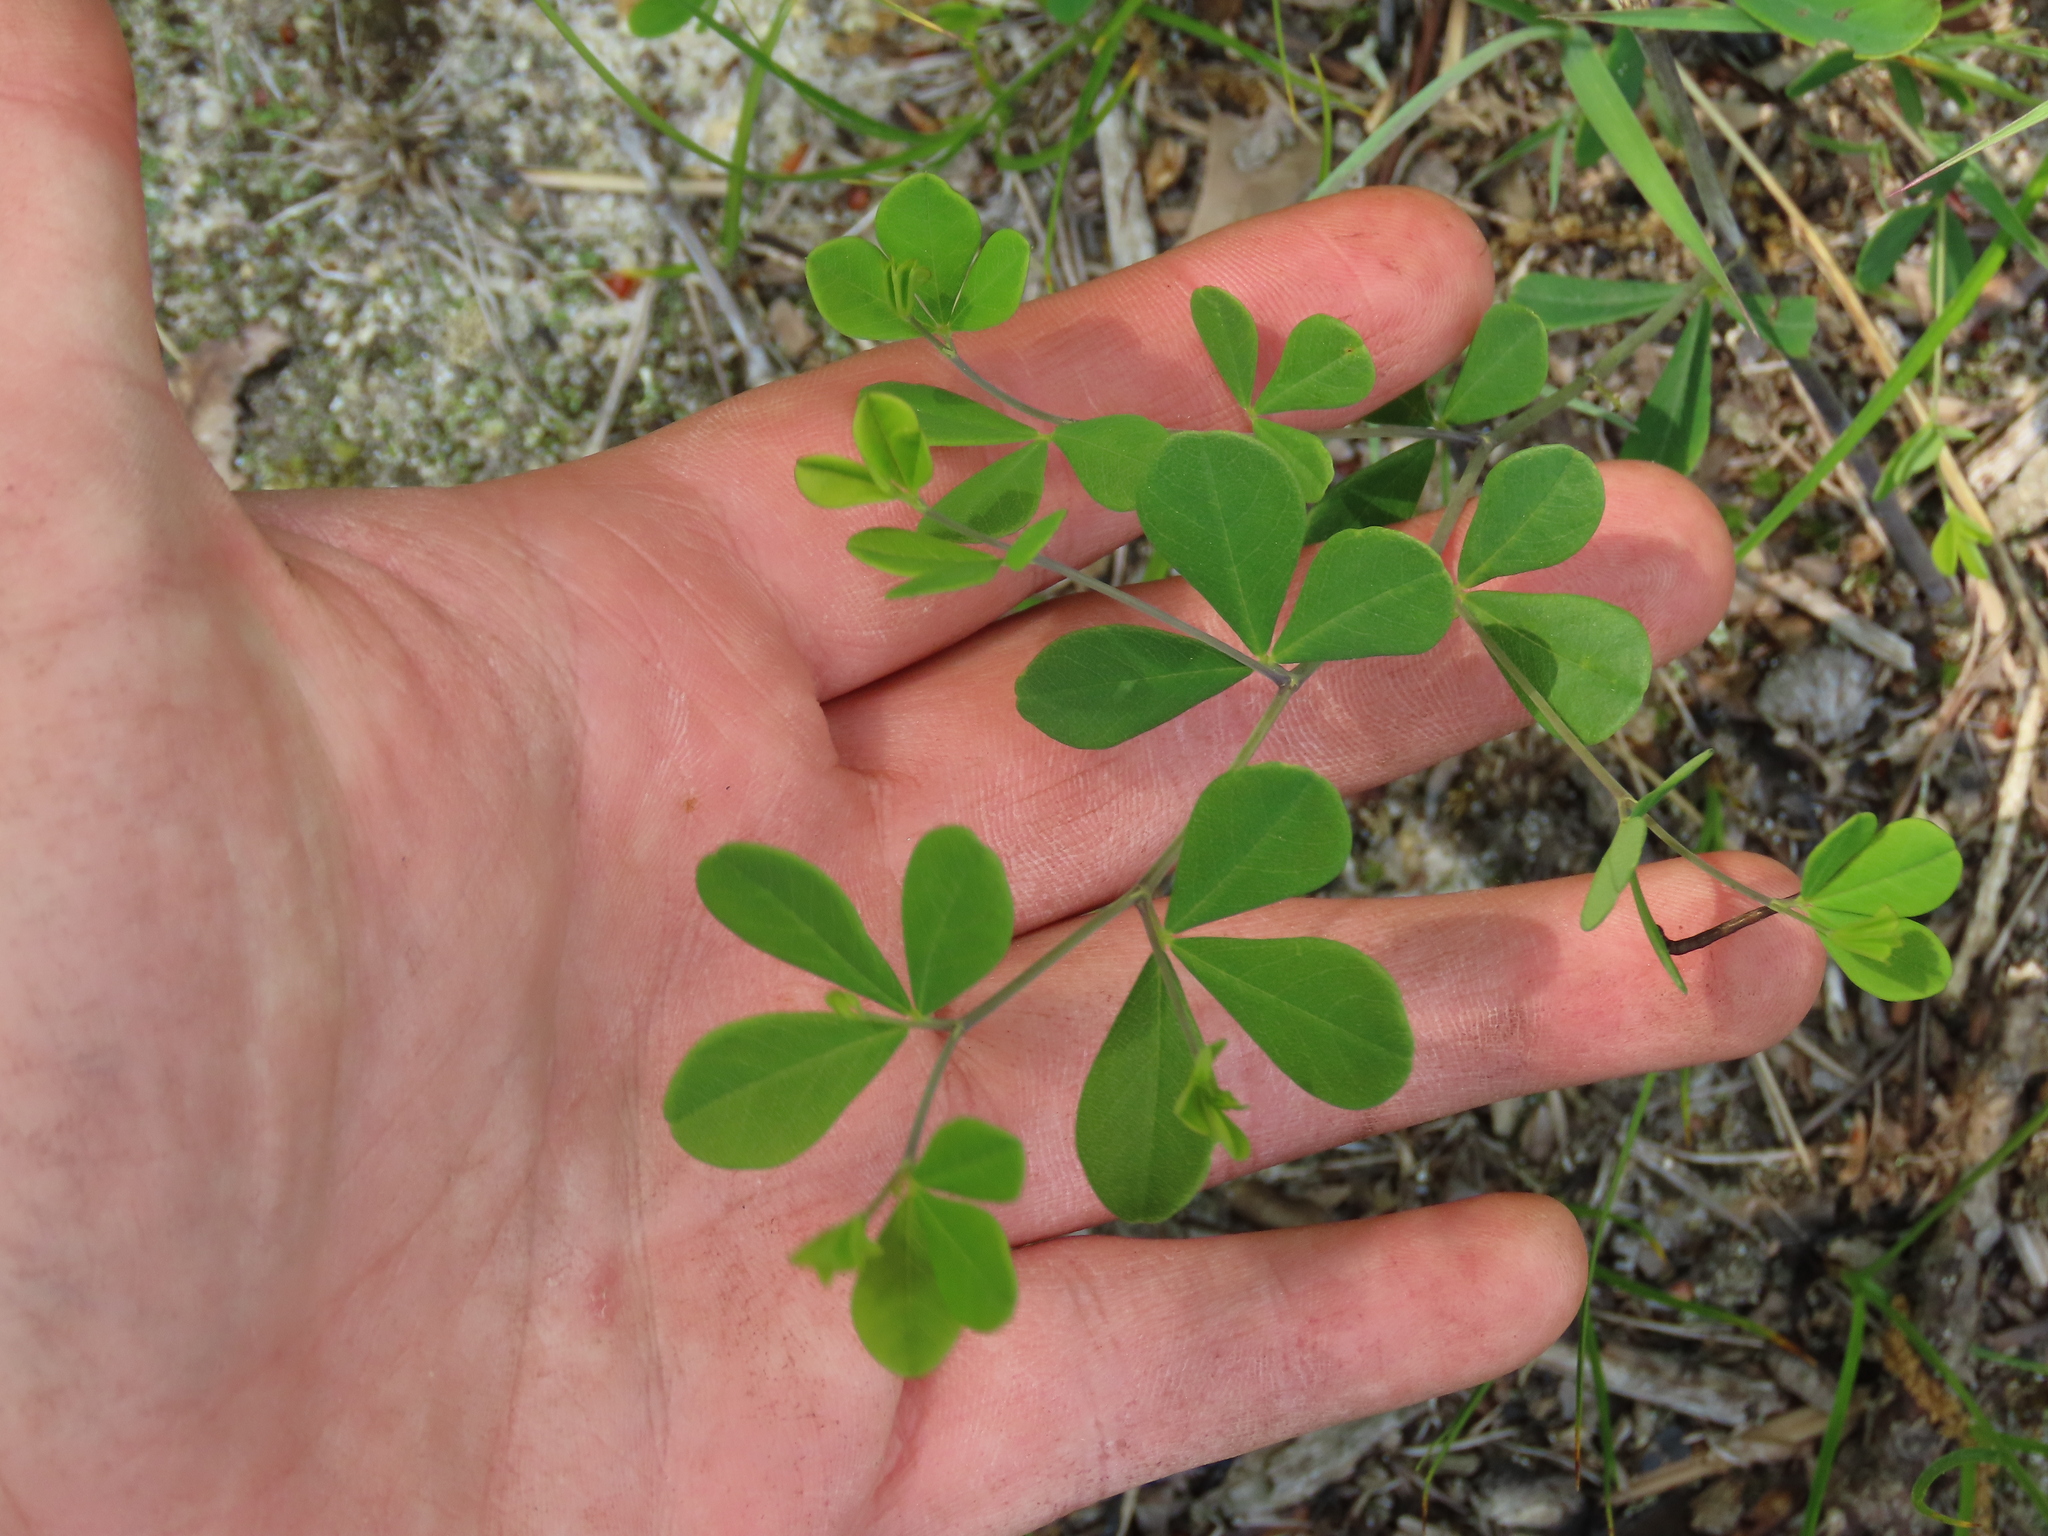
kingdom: Plantae
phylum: Tracheophyta
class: Magnoliopsida
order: Fabales
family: Fabaceae
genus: Baptisia
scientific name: Baptisia tinctoria
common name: Wild indigo
